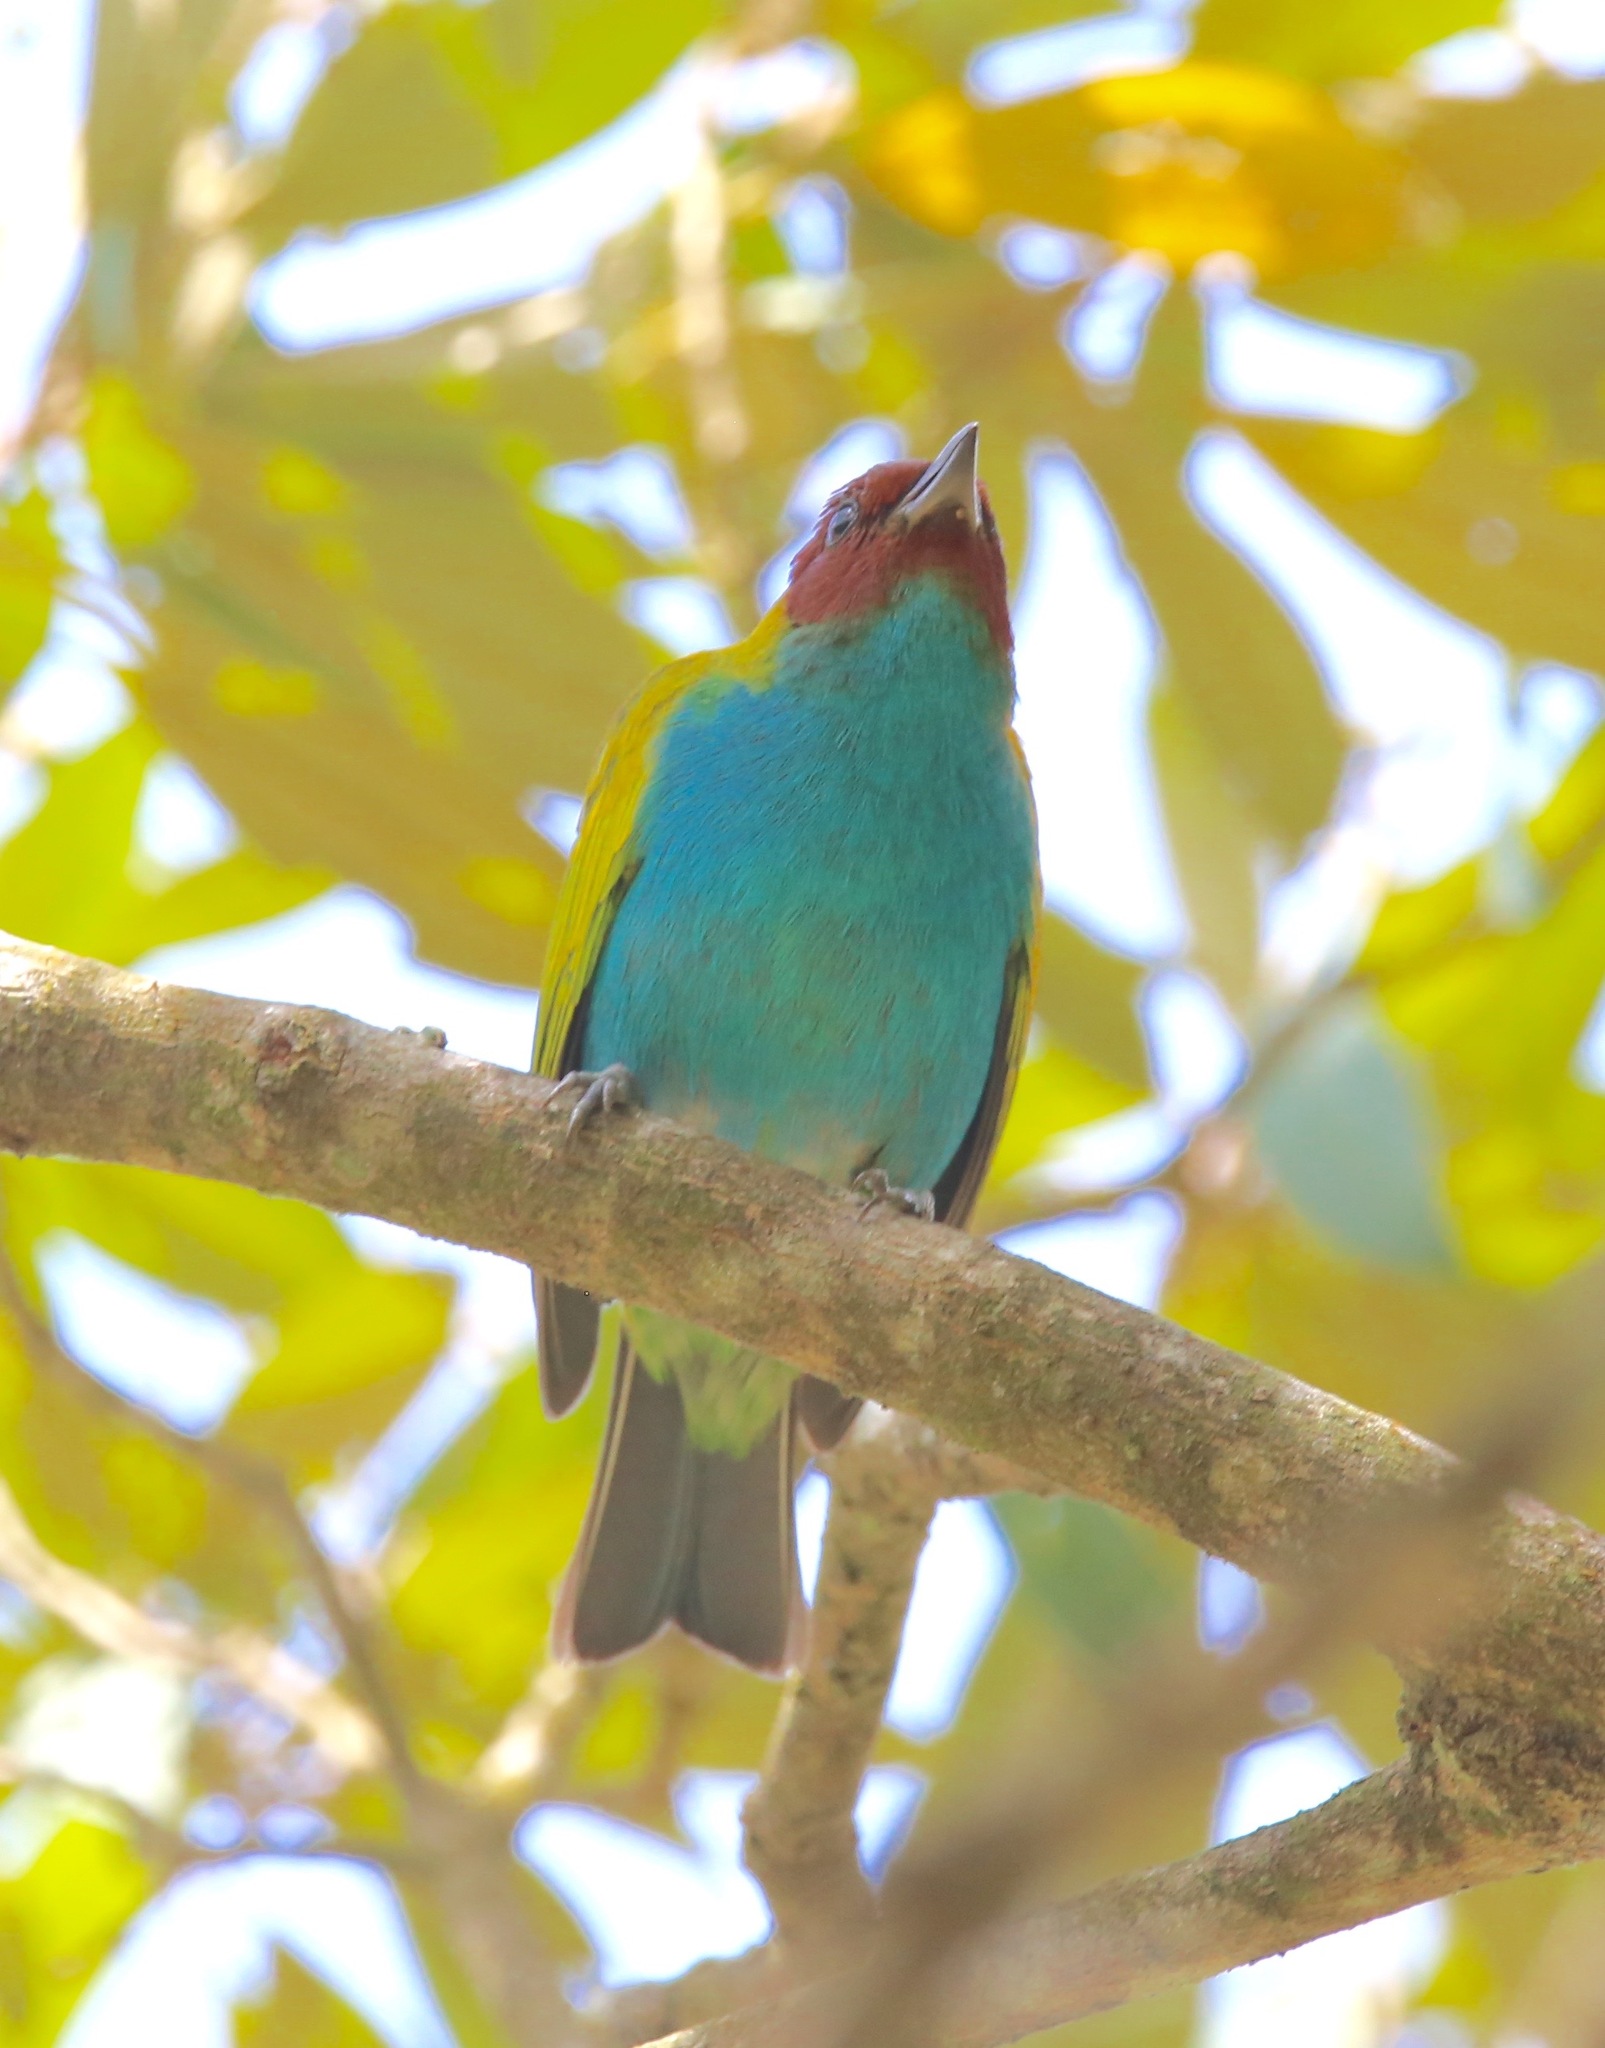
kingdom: Animalia
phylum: Chordata
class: Aves
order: Passeriformes
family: Thraupidae
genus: Tangara
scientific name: Tangara gyrola
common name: Bay-headed tanager
